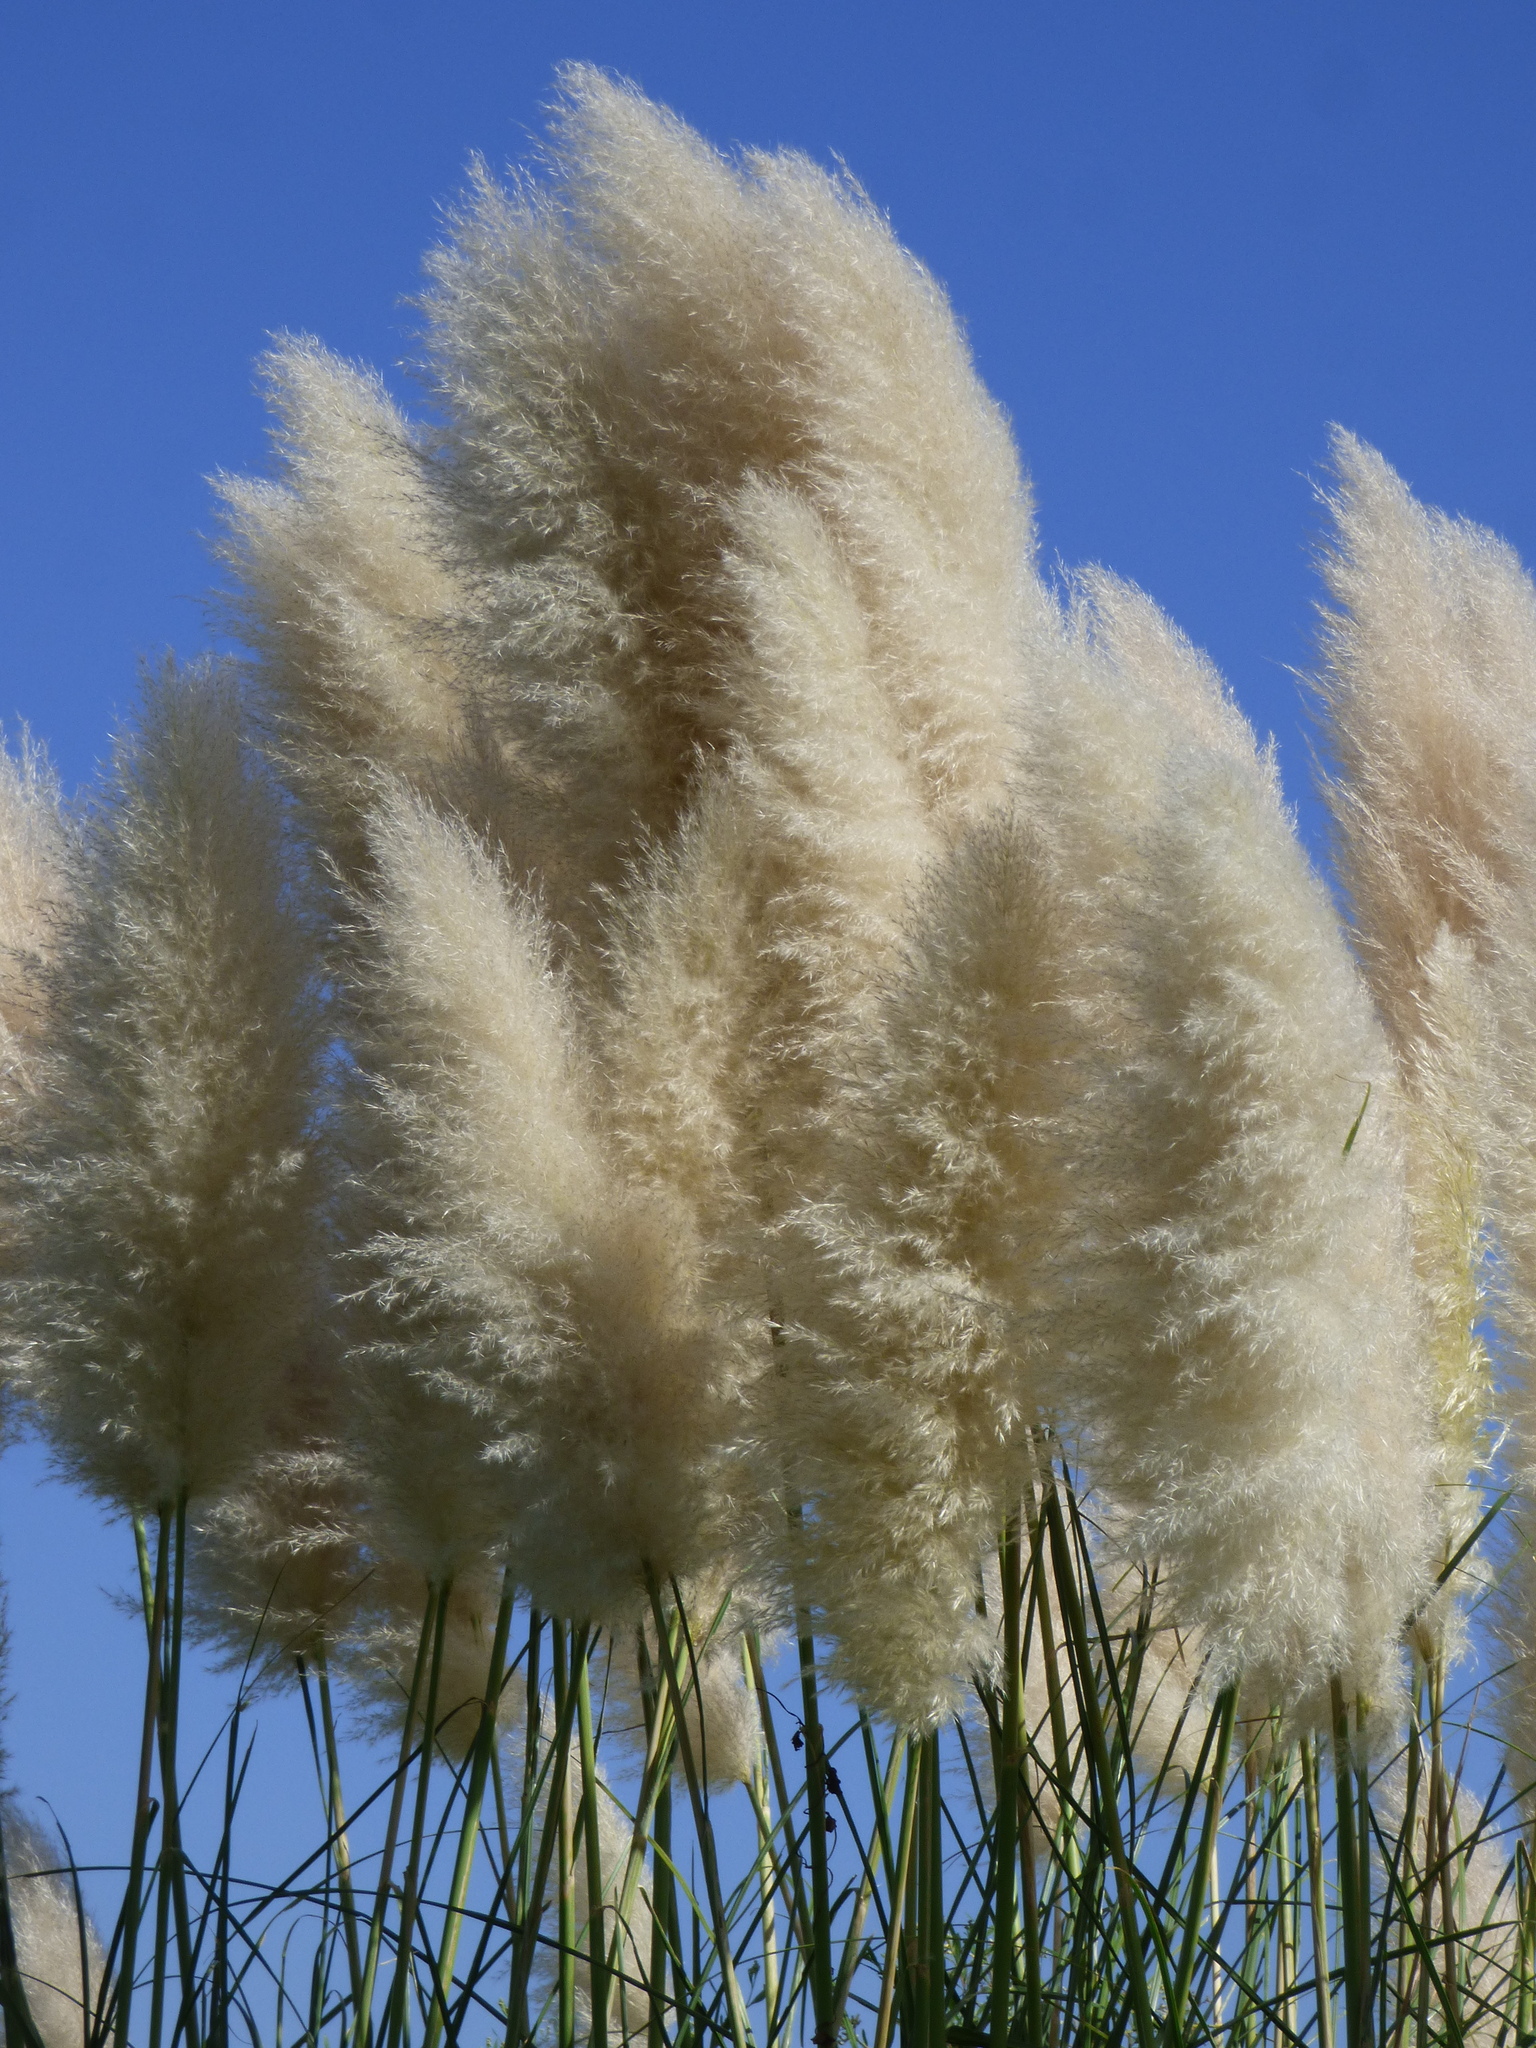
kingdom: Plantae
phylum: Tracheophyta
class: Liliopsida
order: Poales
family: Poaceae
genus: Cortaderia
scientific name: Cortaderia selloana
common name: Uruguayan pampas grass
